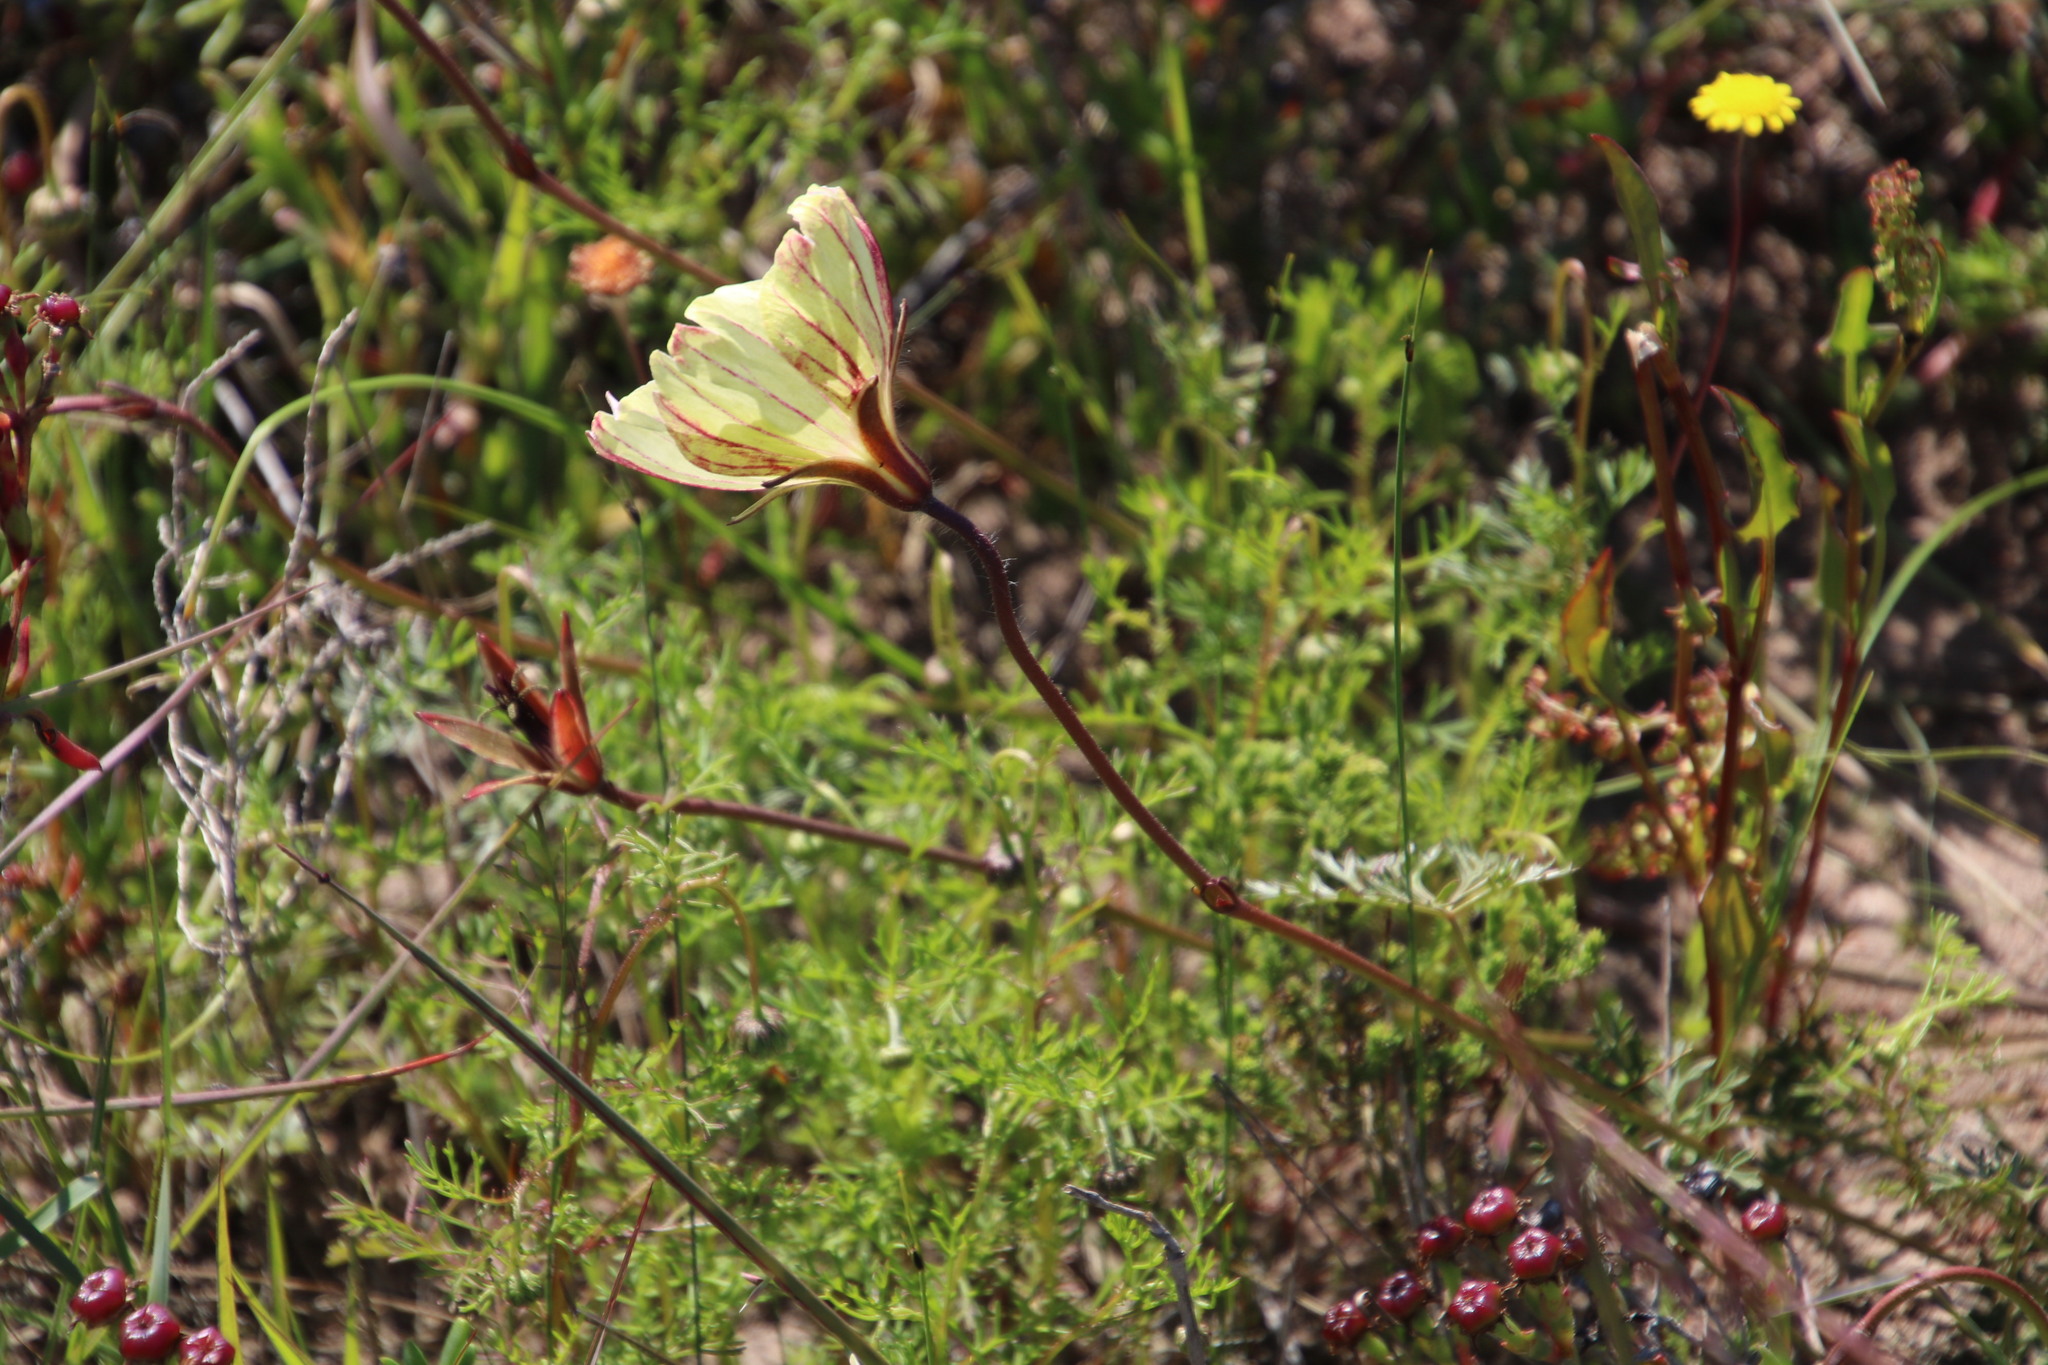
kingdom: Plantae
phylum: Tracheophyta
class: Magnoliopsida
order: Geraniales
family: Geraniaceae
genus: Monsonia
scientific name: Monsonia speciosa
